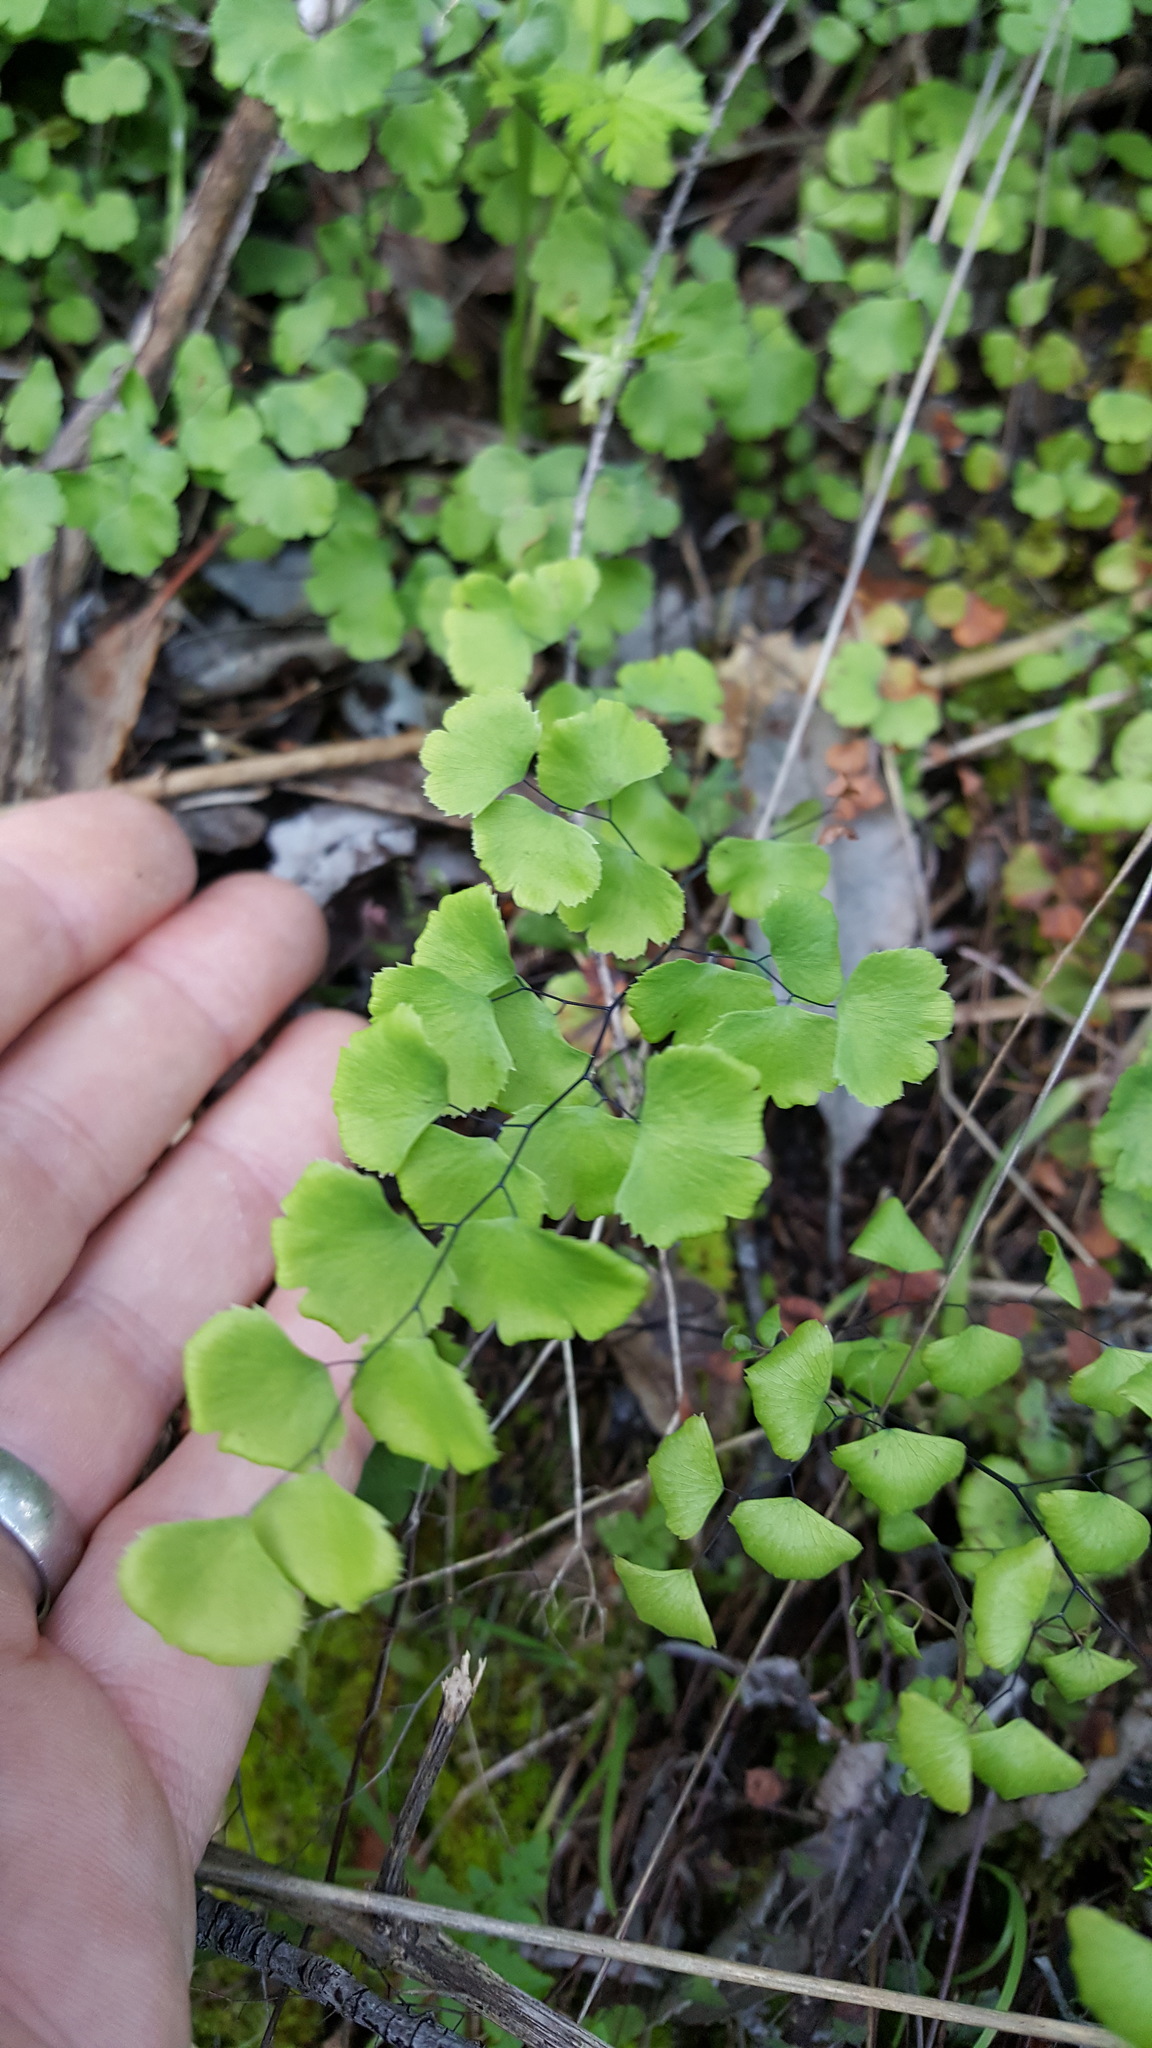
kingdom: Plantae
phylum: Tracheophyta
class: Polypodiopsida
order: Polypodiales
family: Pteridaceae
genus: Adiantum
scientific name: Adiantum jordanii
